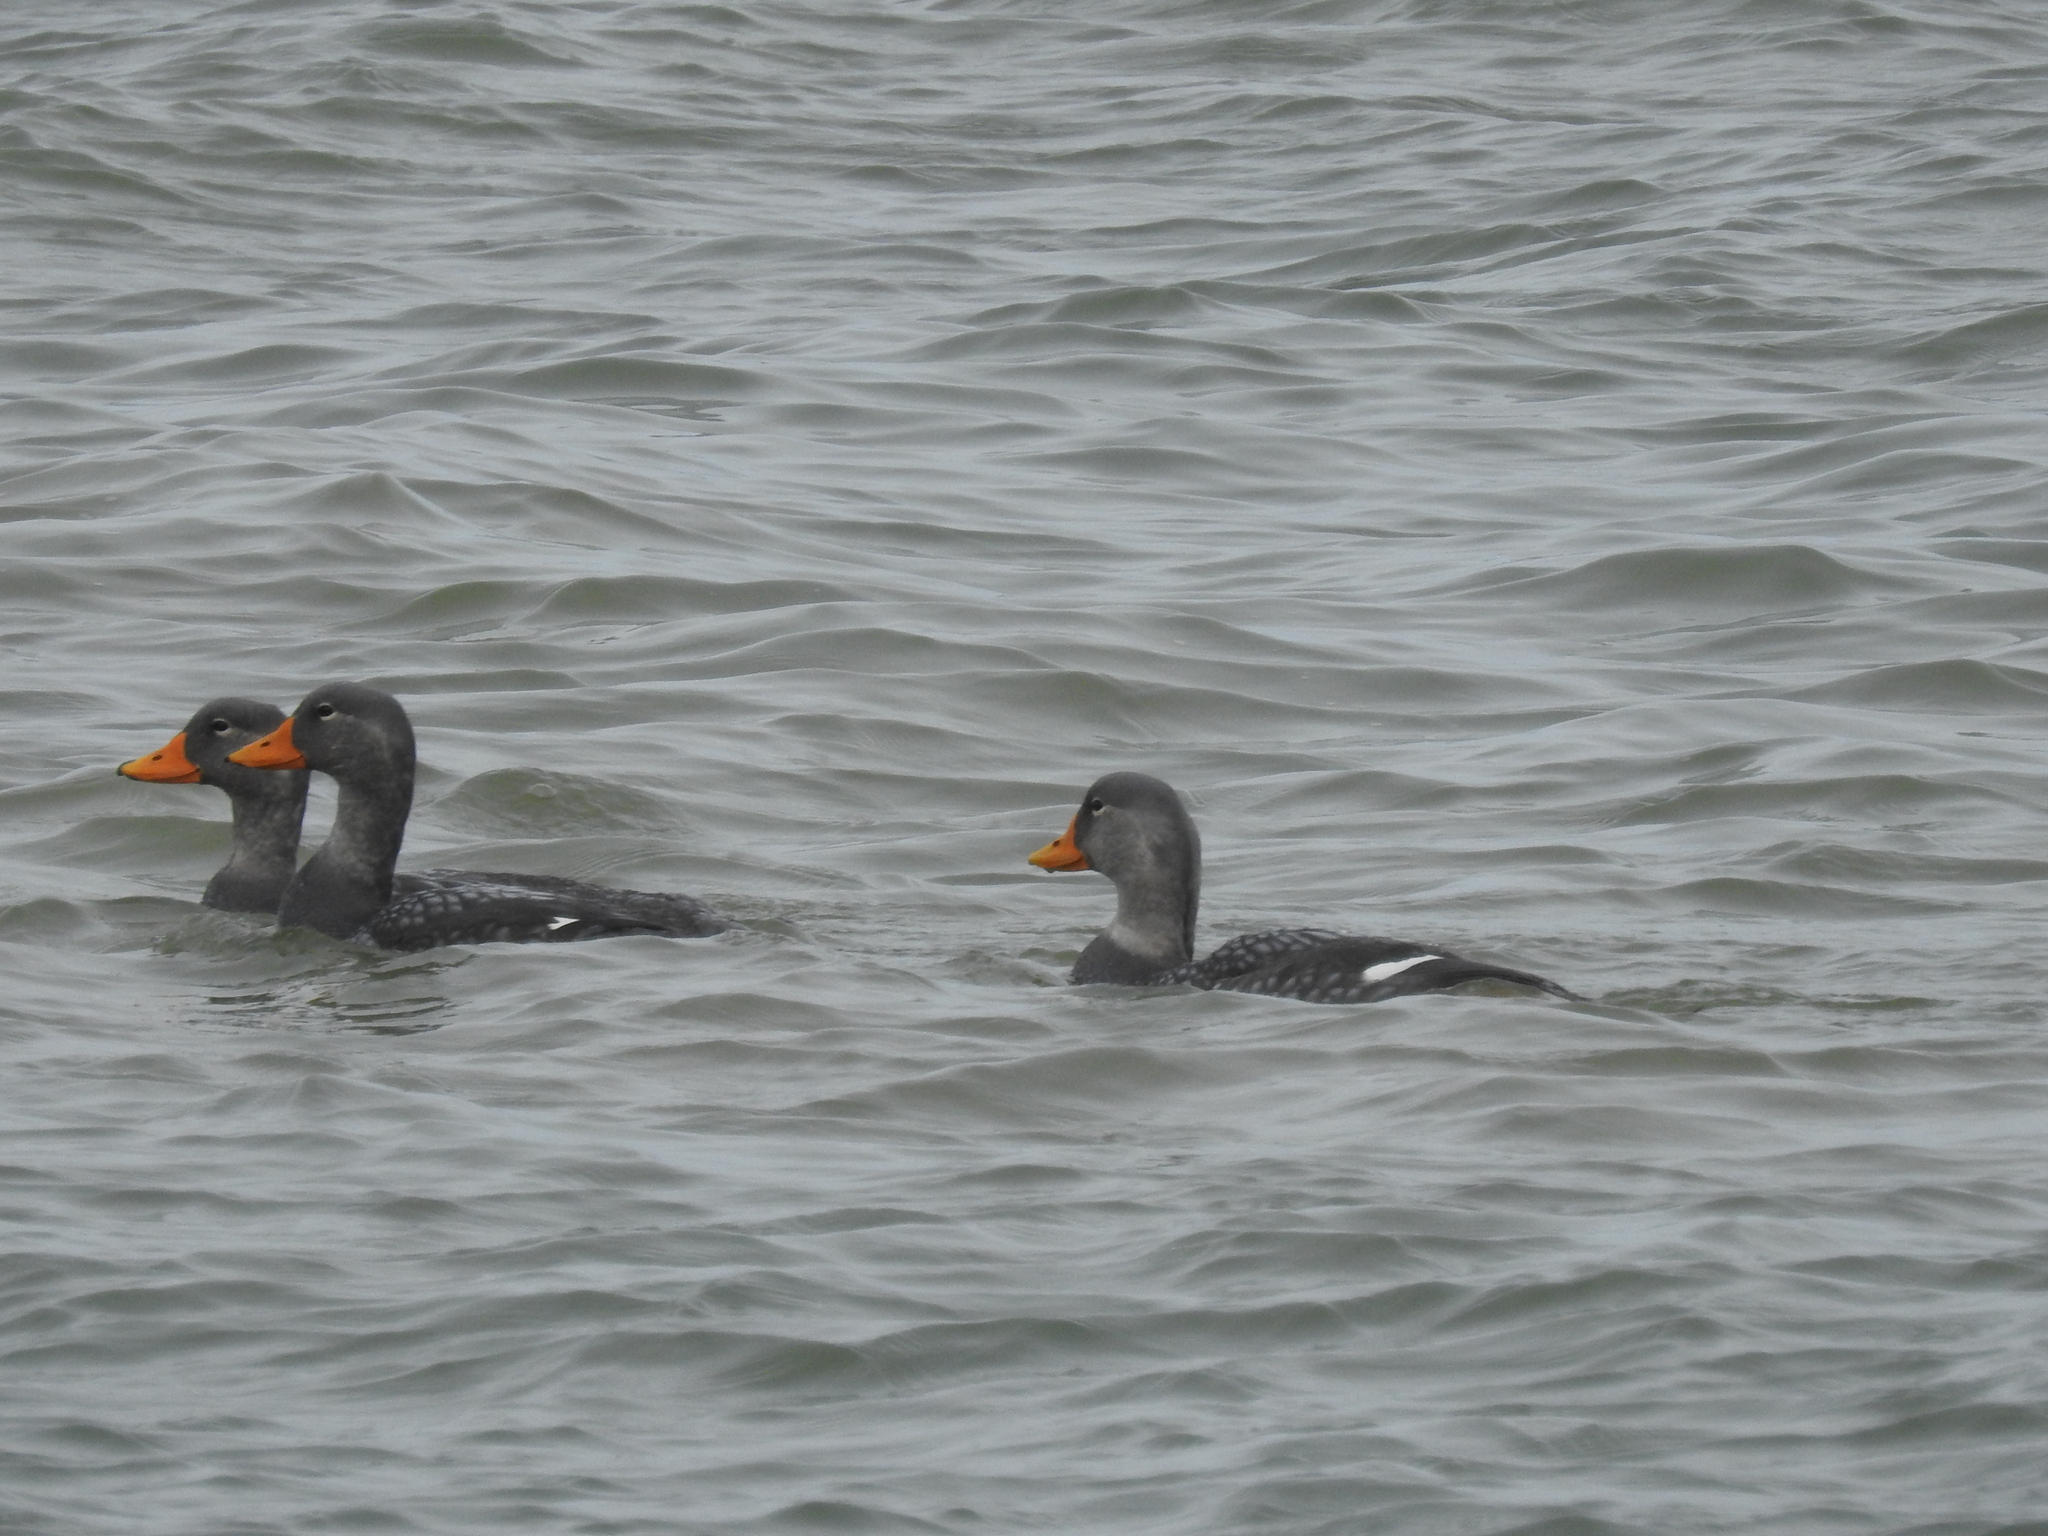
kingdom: Animalia
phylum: Chordata
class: Aves
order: Anseriformes
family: Anatidae
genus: Tachyeres
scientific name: Tachyeres pteneres
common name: Fuegian steamer duck
